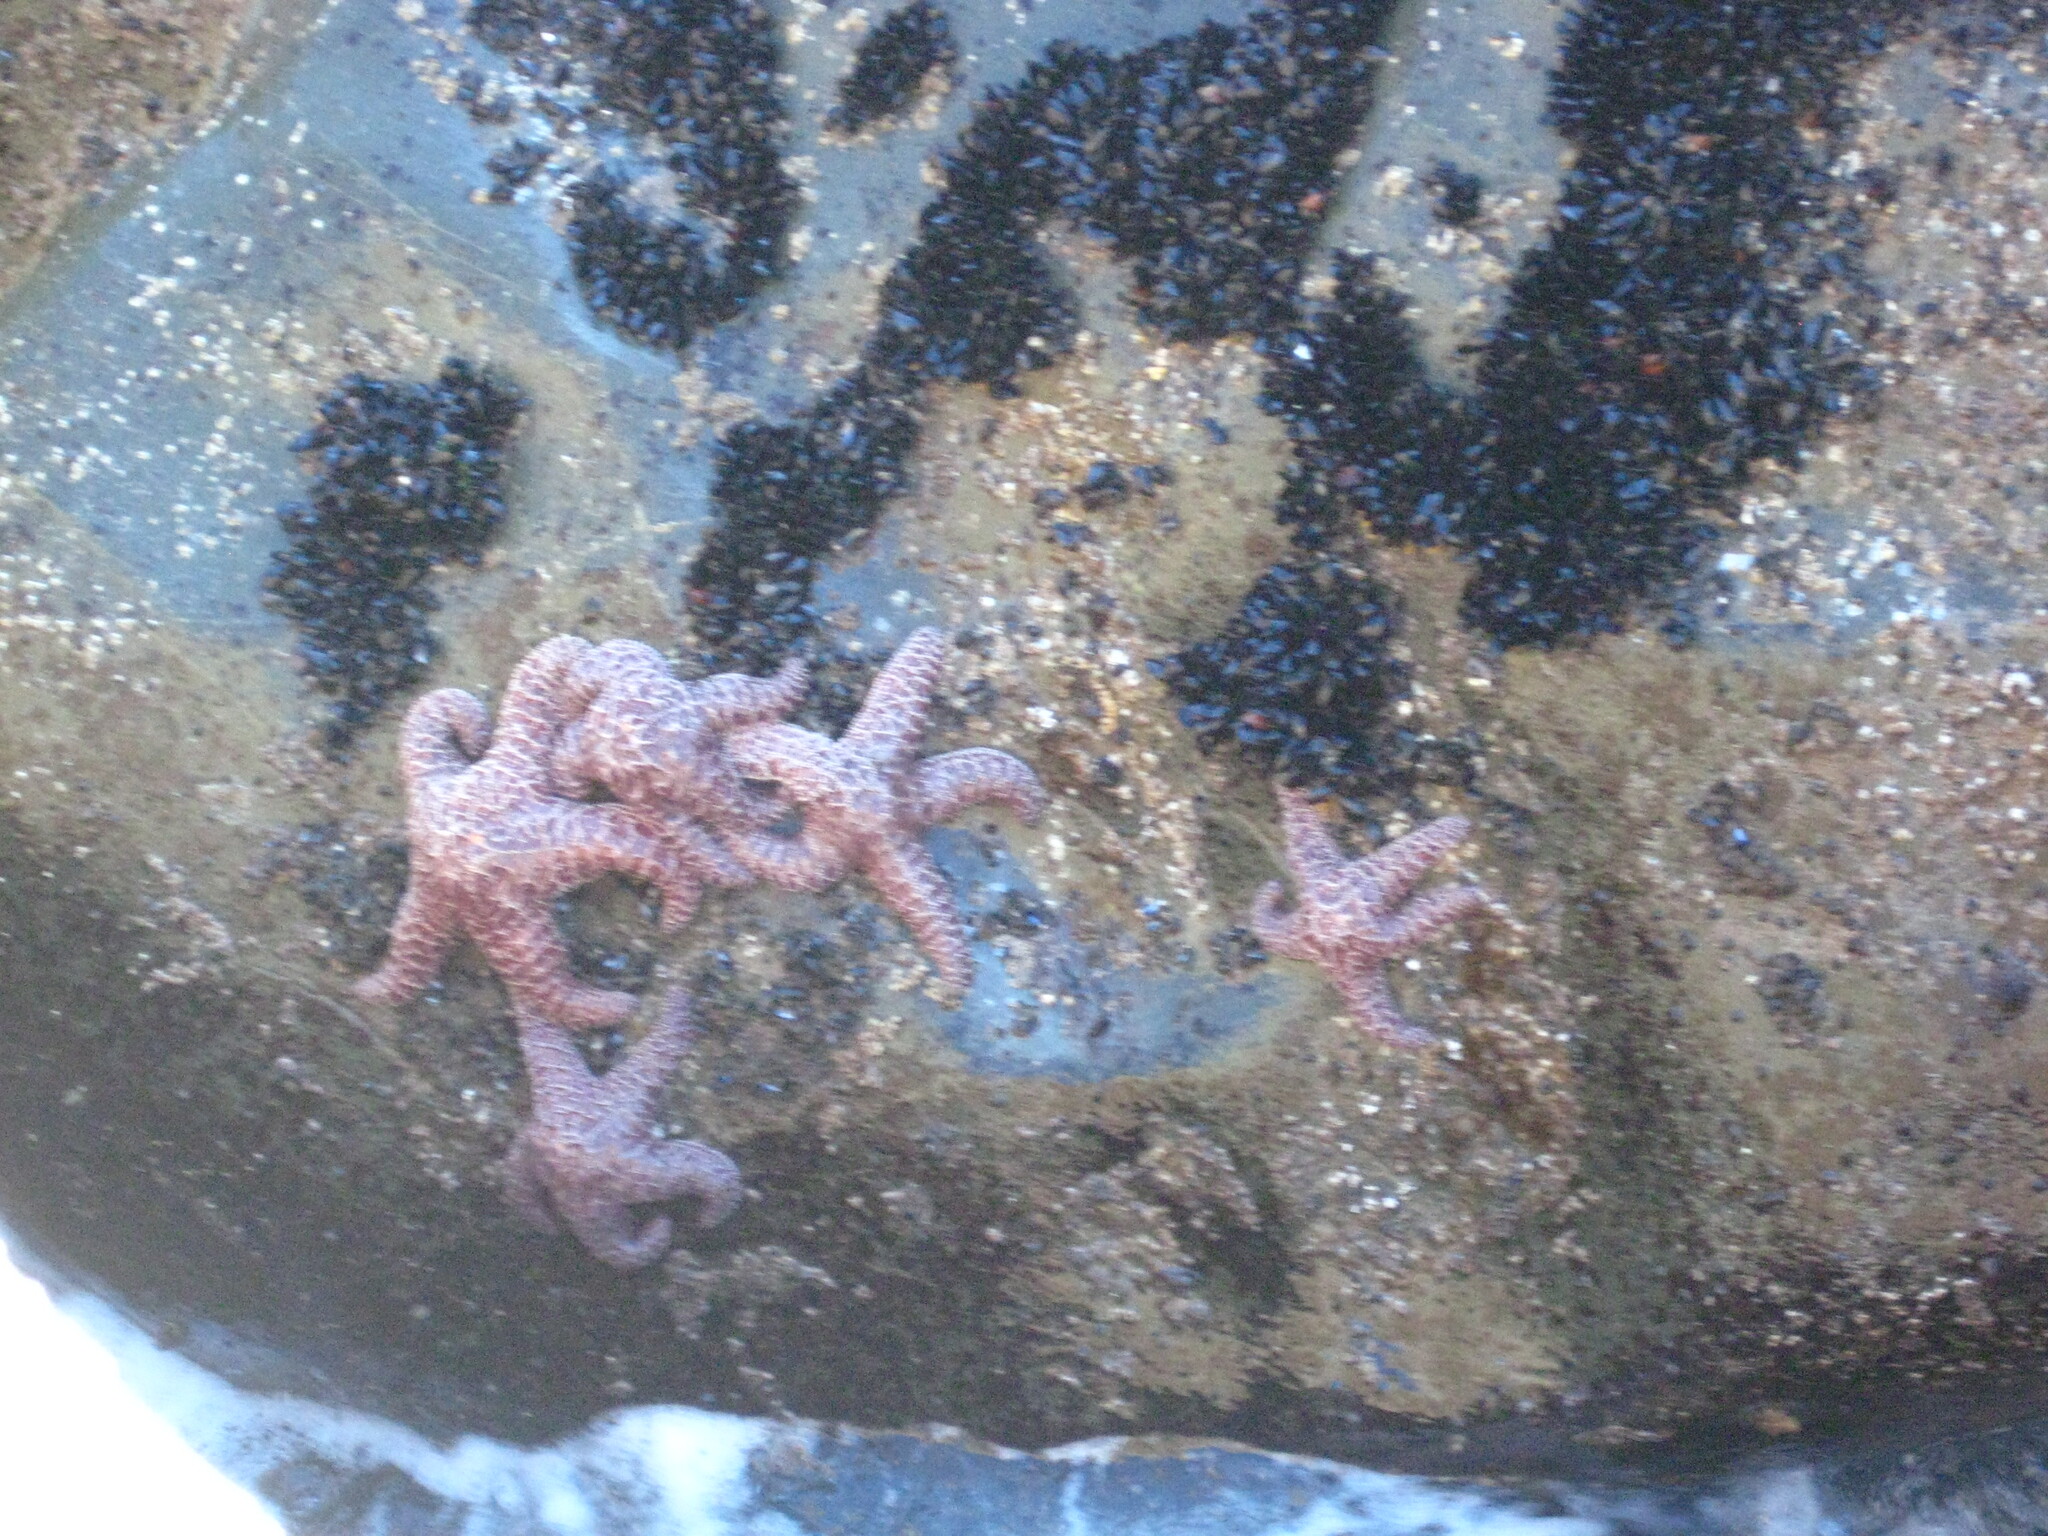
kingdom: Animalia
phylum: Echinodermata
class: Asteroidea
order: Forcipulatida
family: Asteriidae
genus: Pisaster
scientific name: Pisaster ochraceus
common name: Ochre stars
